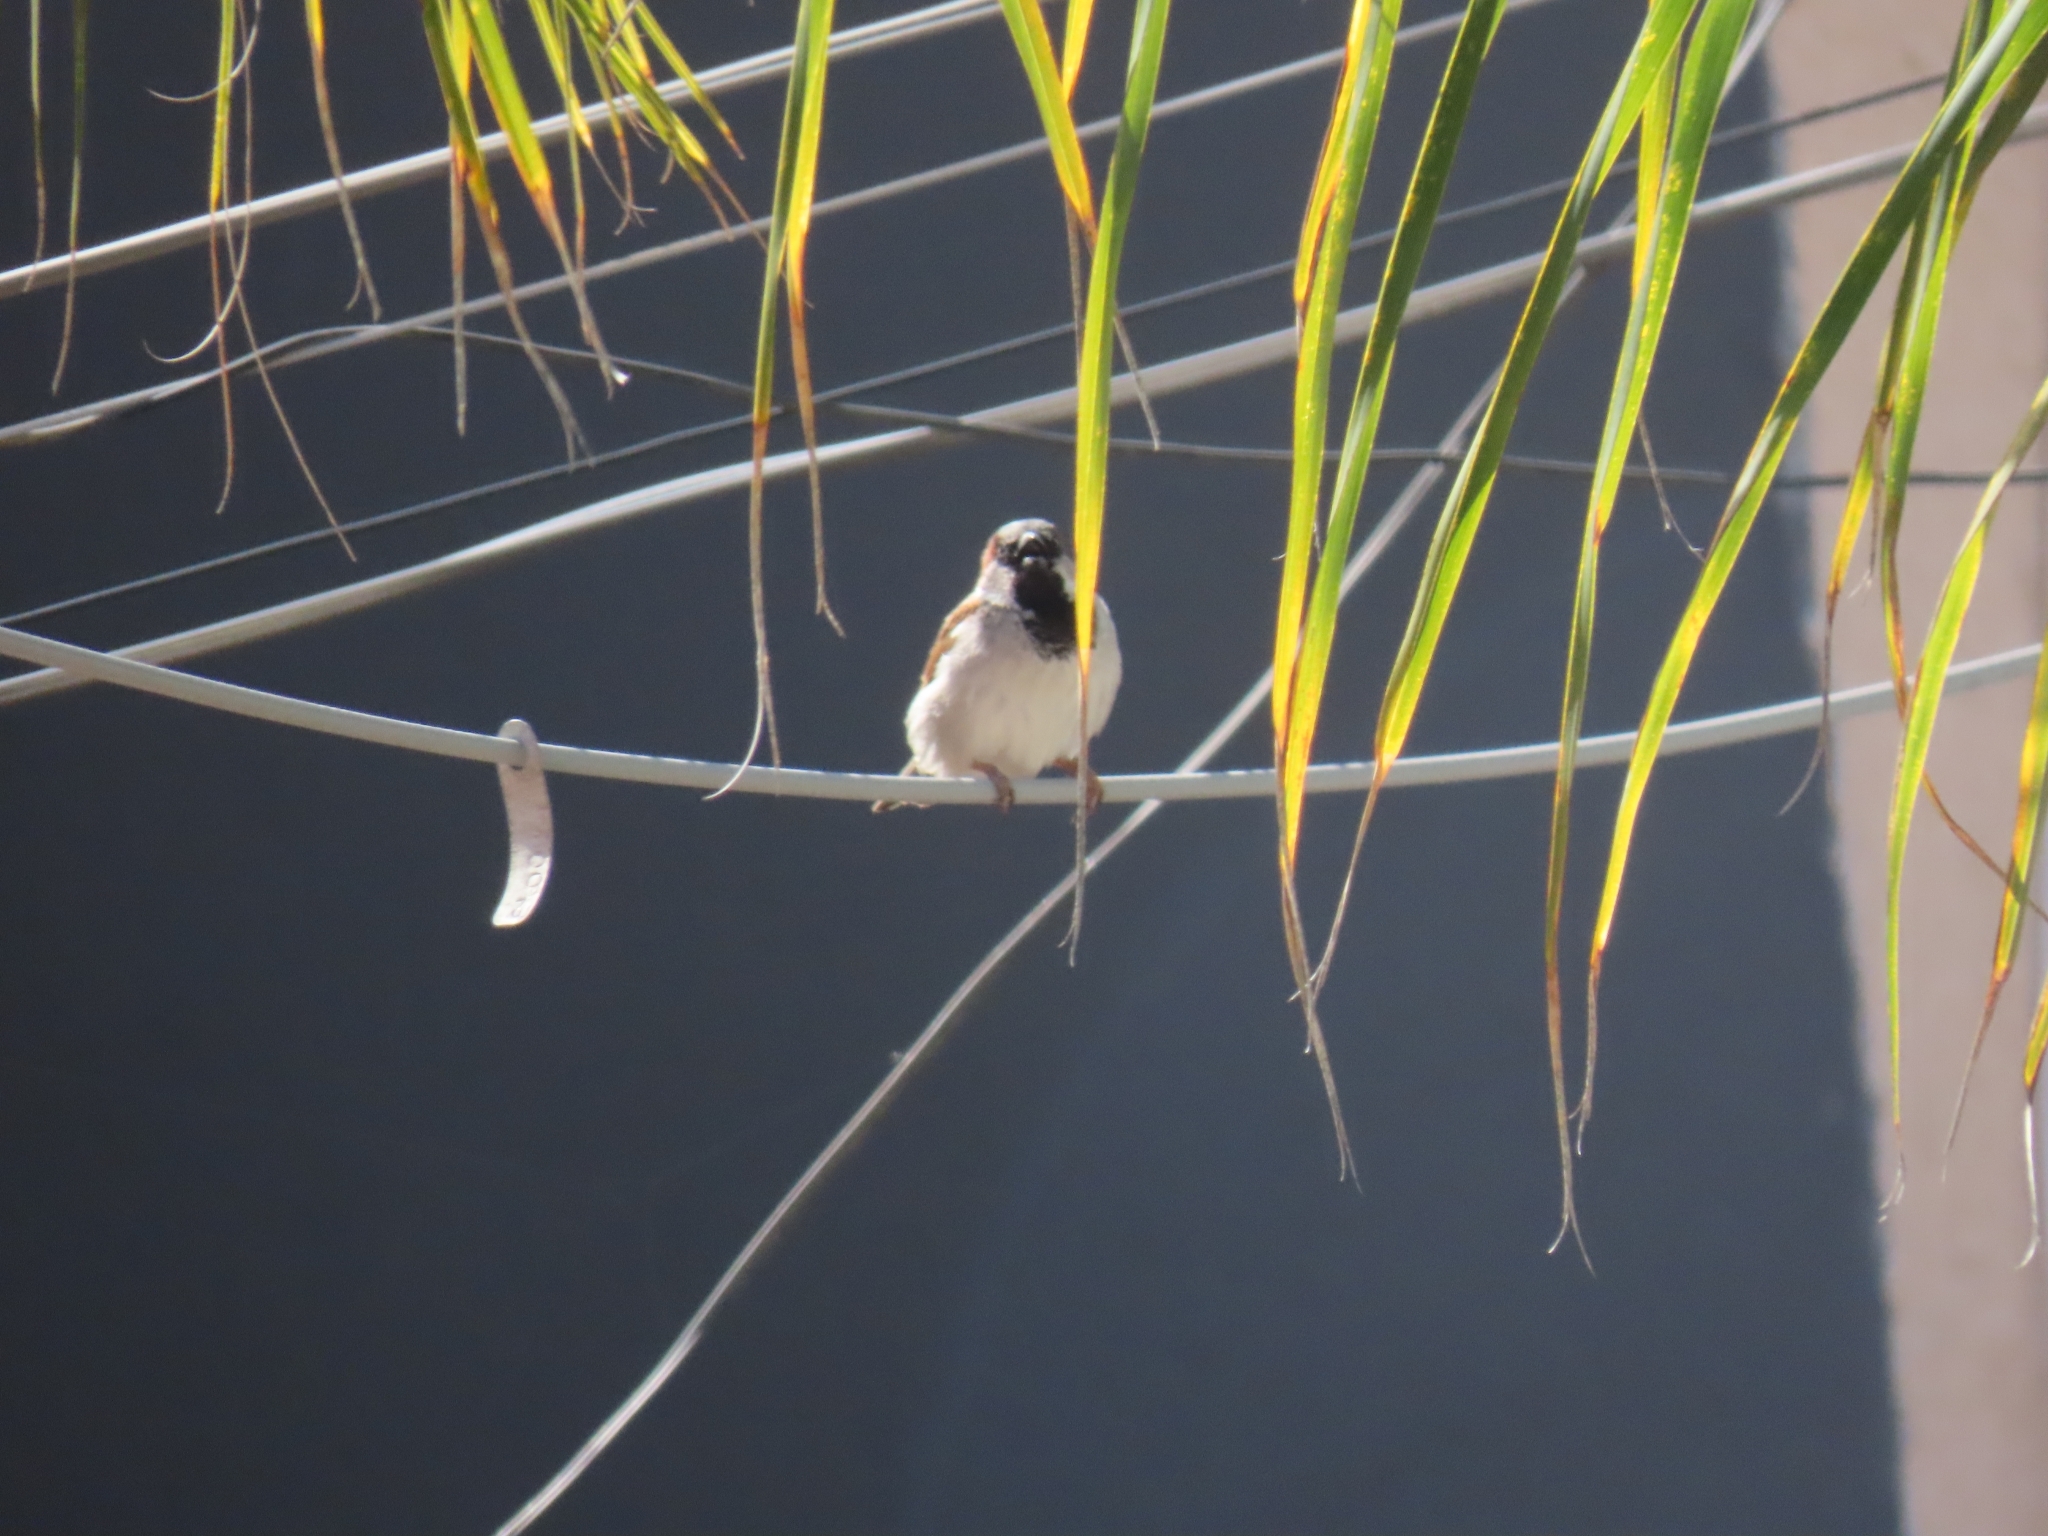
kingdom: Animalia
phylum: Chordata
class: Aves
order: Passeriformes
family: Passeridae
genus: Passer
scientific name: Passer domesticus
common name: House sparrow
